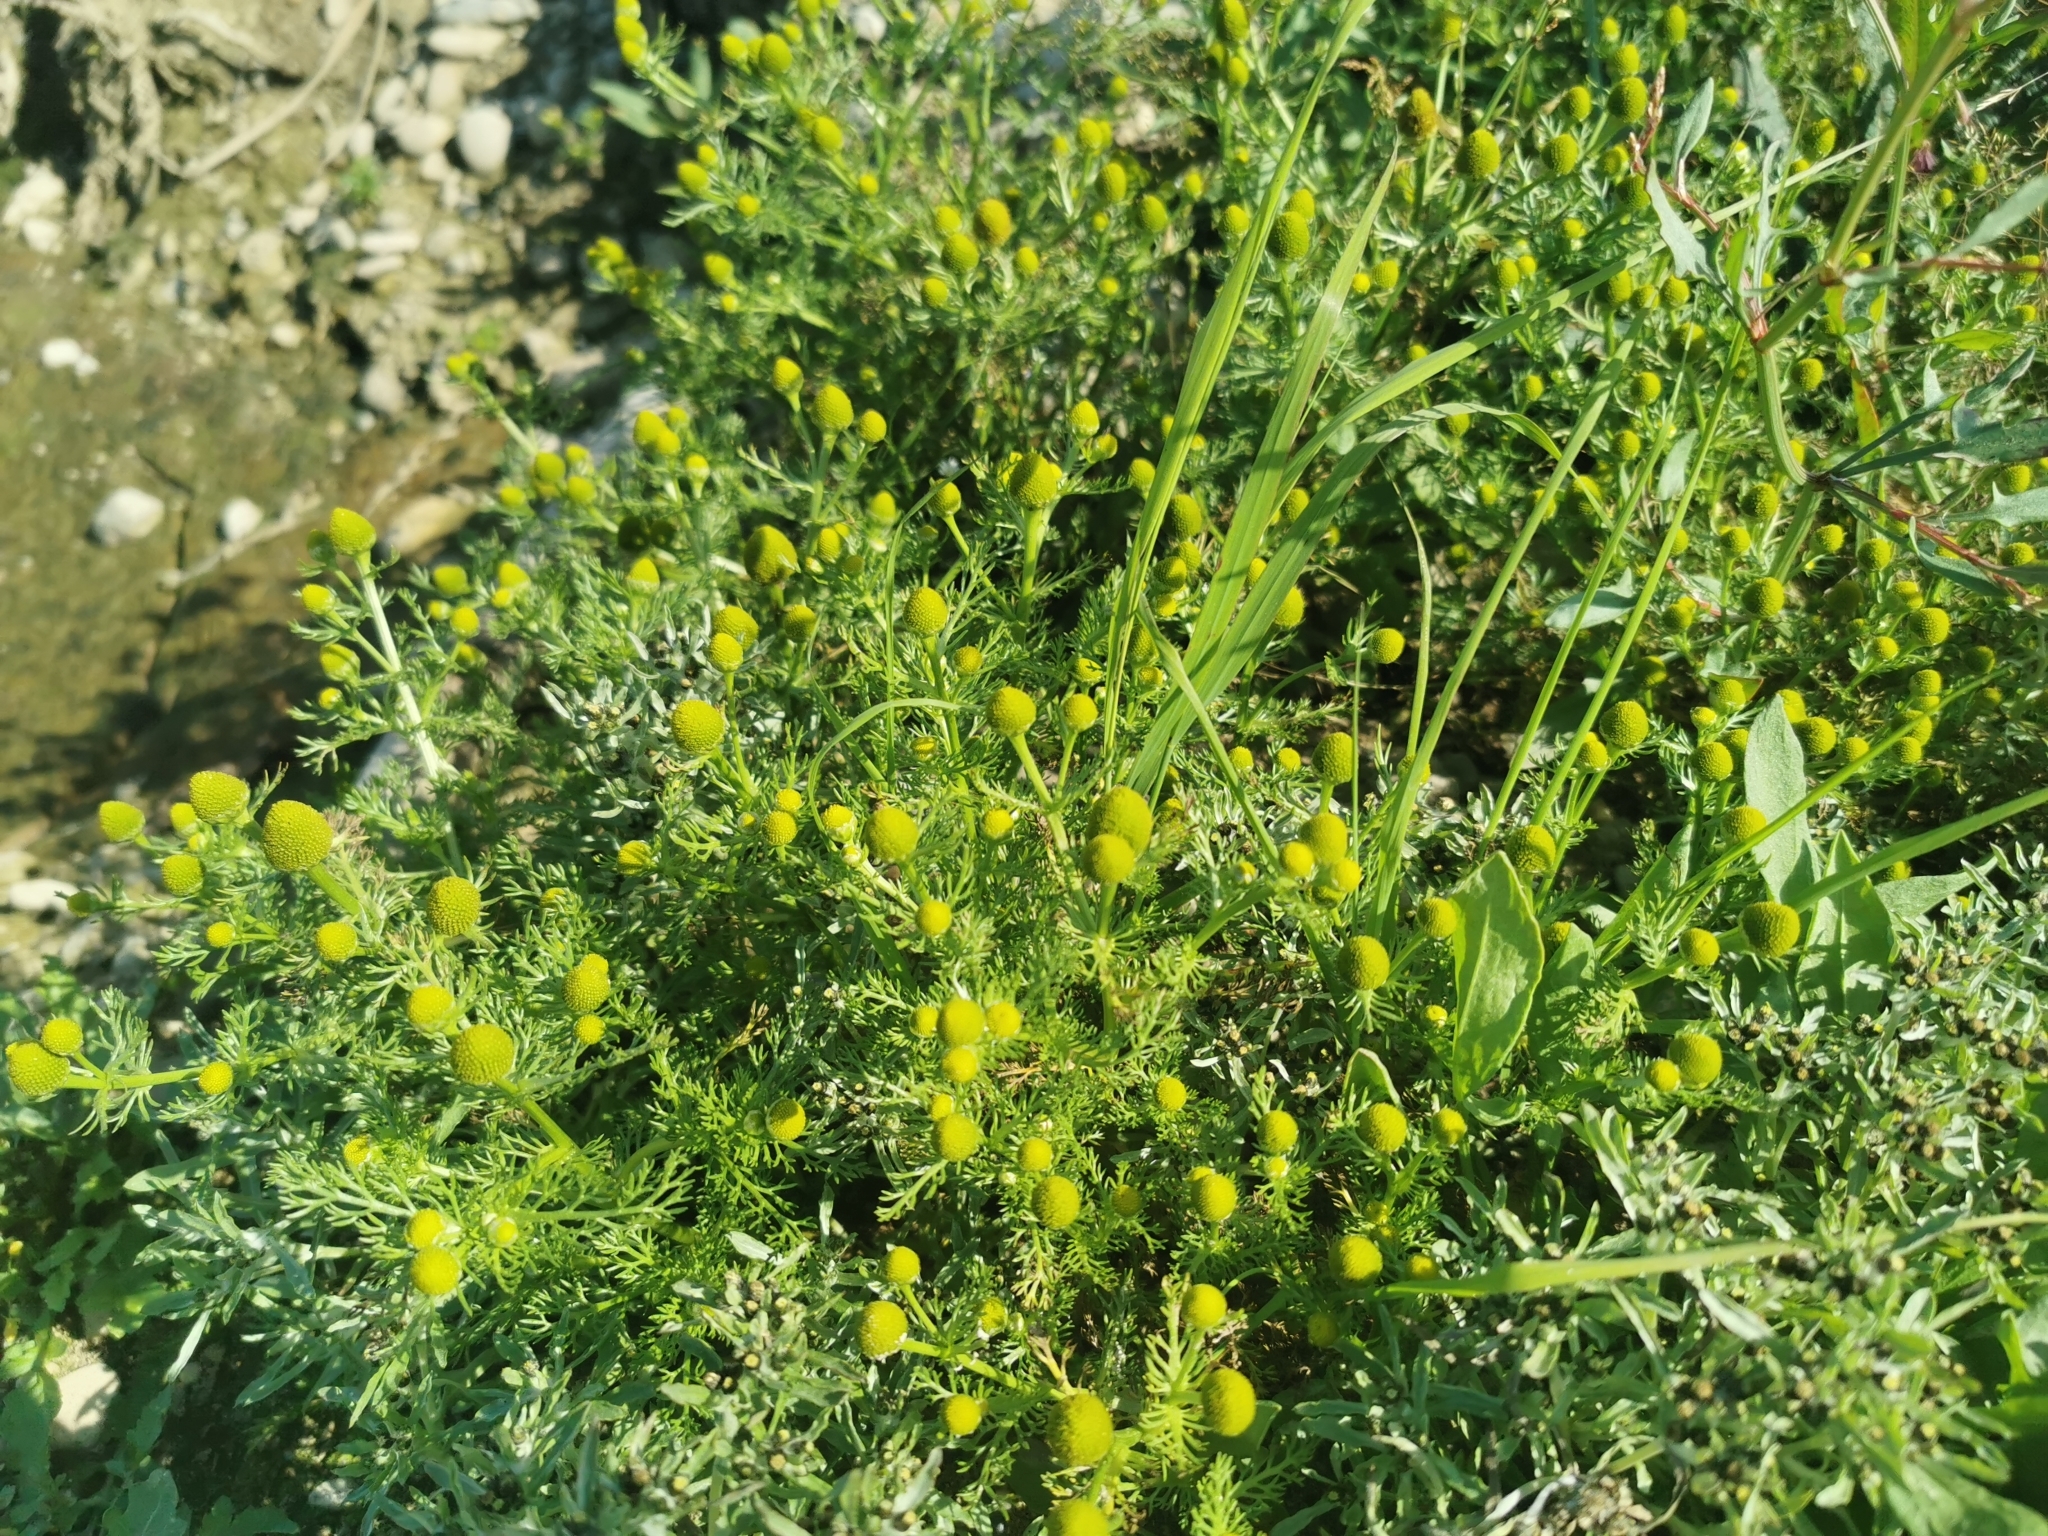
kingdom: Plantae
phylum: Tracheophyta
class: Magnoliopsida
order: Asterales
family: Asteraceae
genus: Matricaria
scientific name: Matricaria discoidea
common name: Disc mayweed
